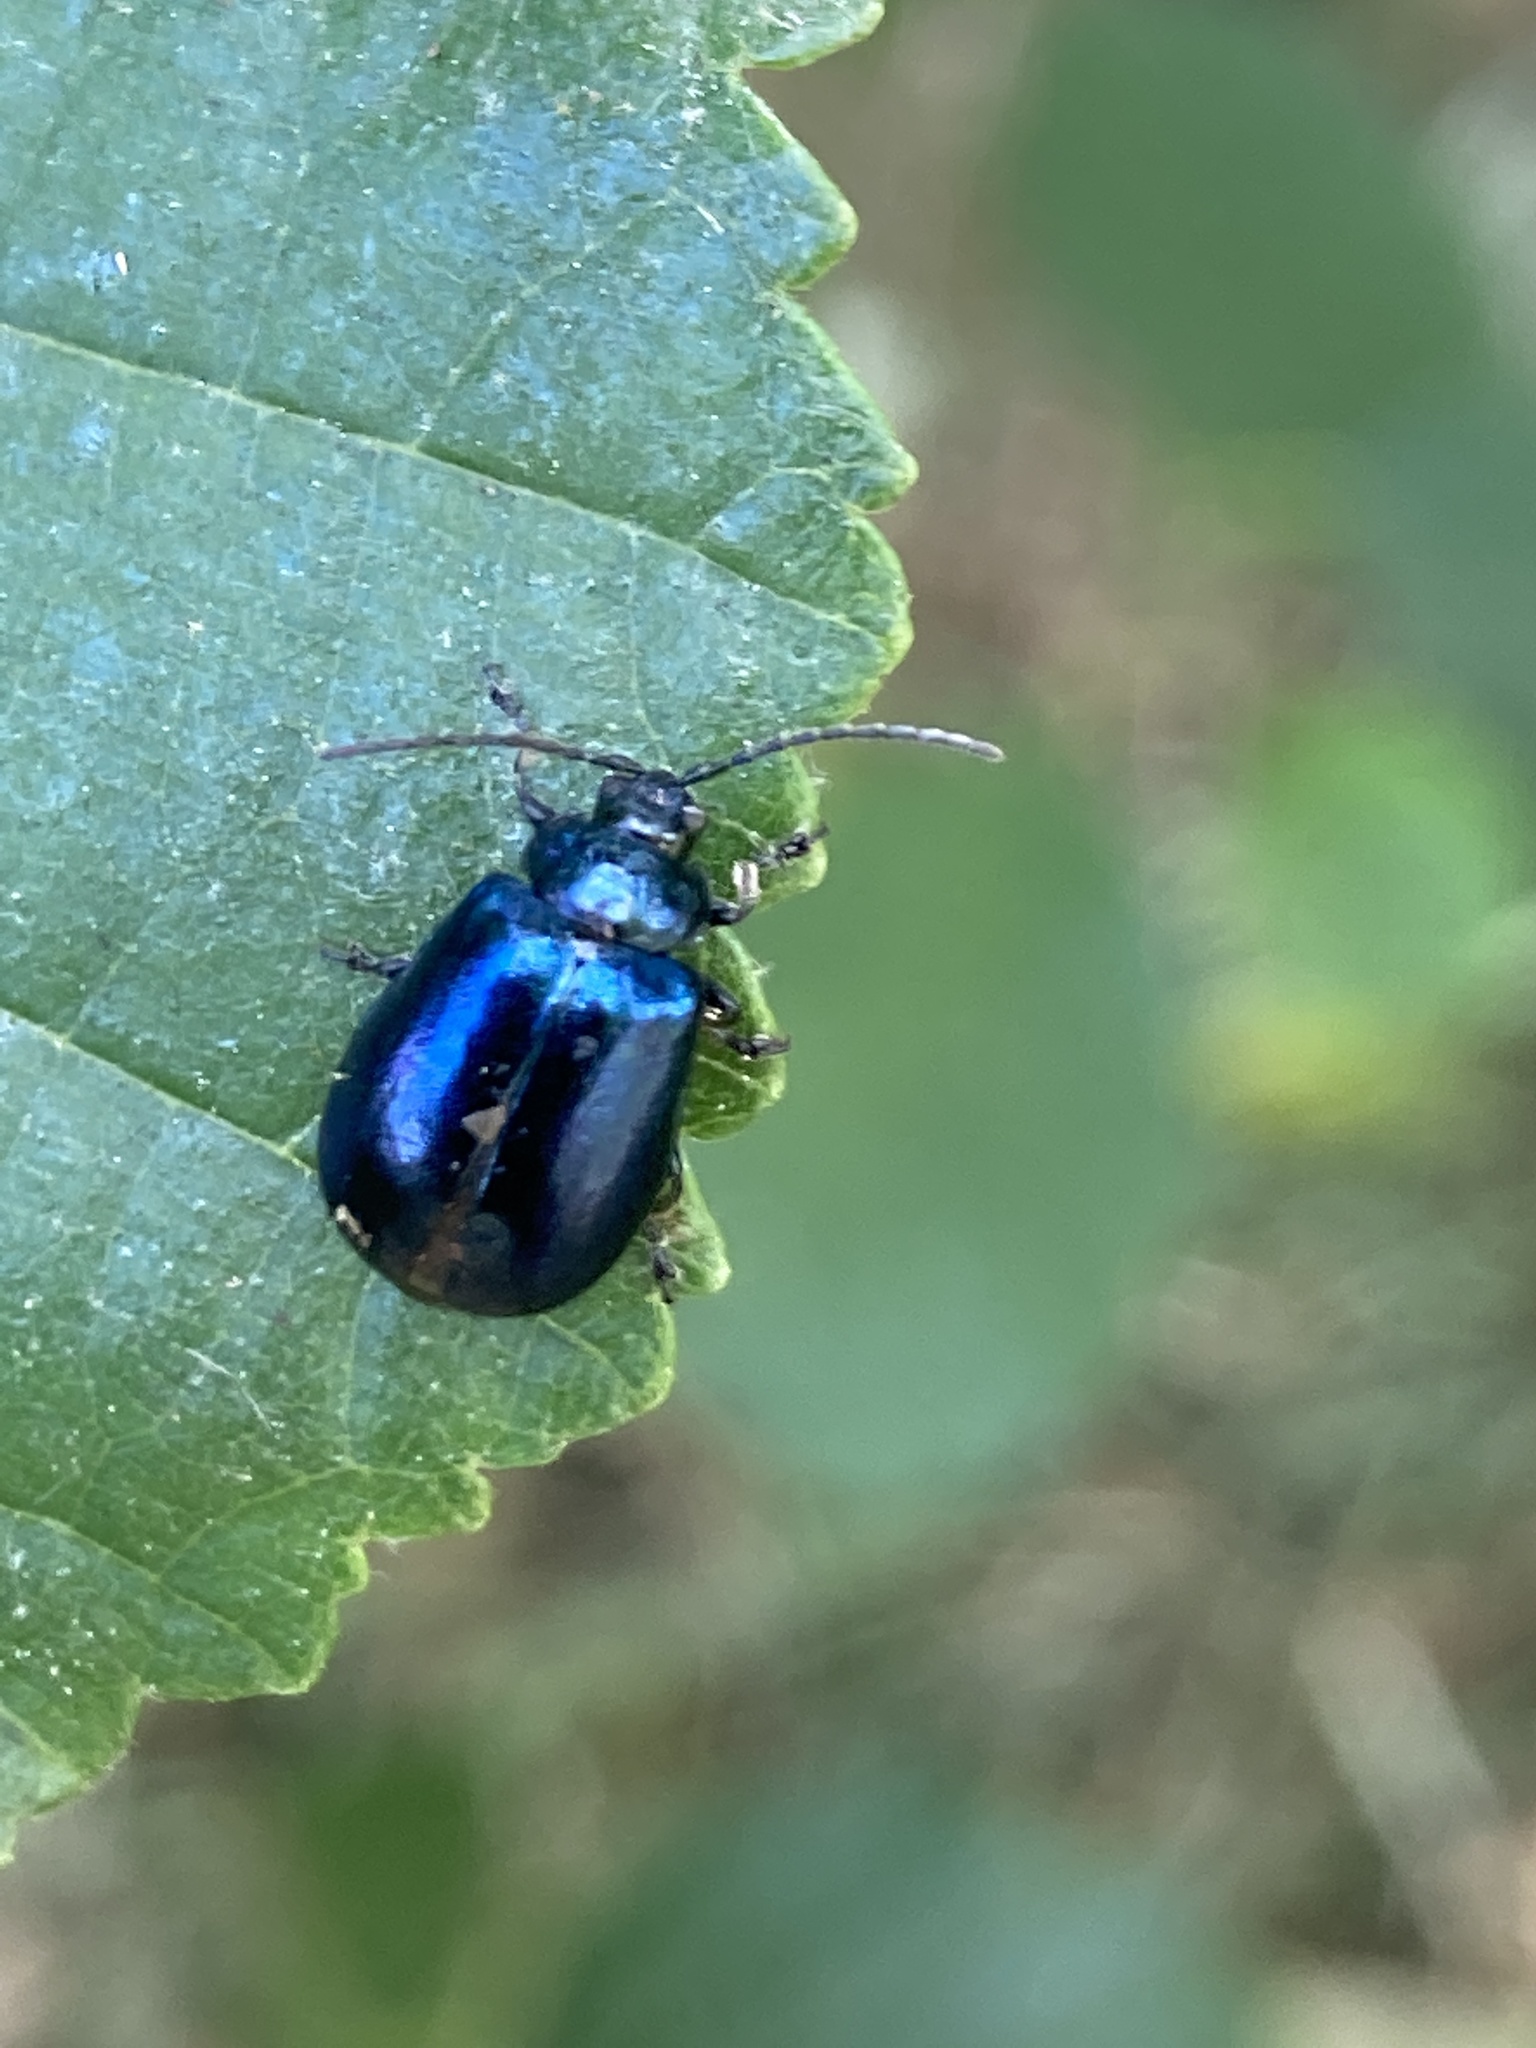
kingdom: Animalia
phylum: Arthropoda
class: Insecta
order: Coleoptera
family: Chrysomelidae
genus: Agelastica
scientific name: Agelastica alni
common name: Alder leaf beetle
